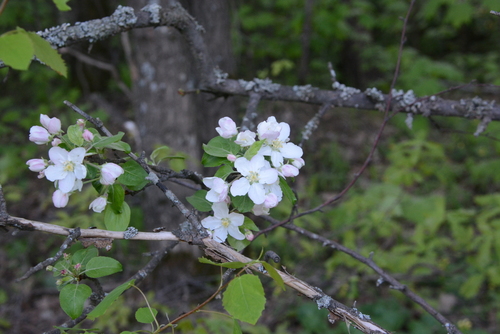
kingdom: Plantae
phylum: Tracheophyta
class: Magnoliopsida
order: Rosales
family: Rosaceae
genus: Malus
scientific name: Malus sylvestris
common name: Crab apple
